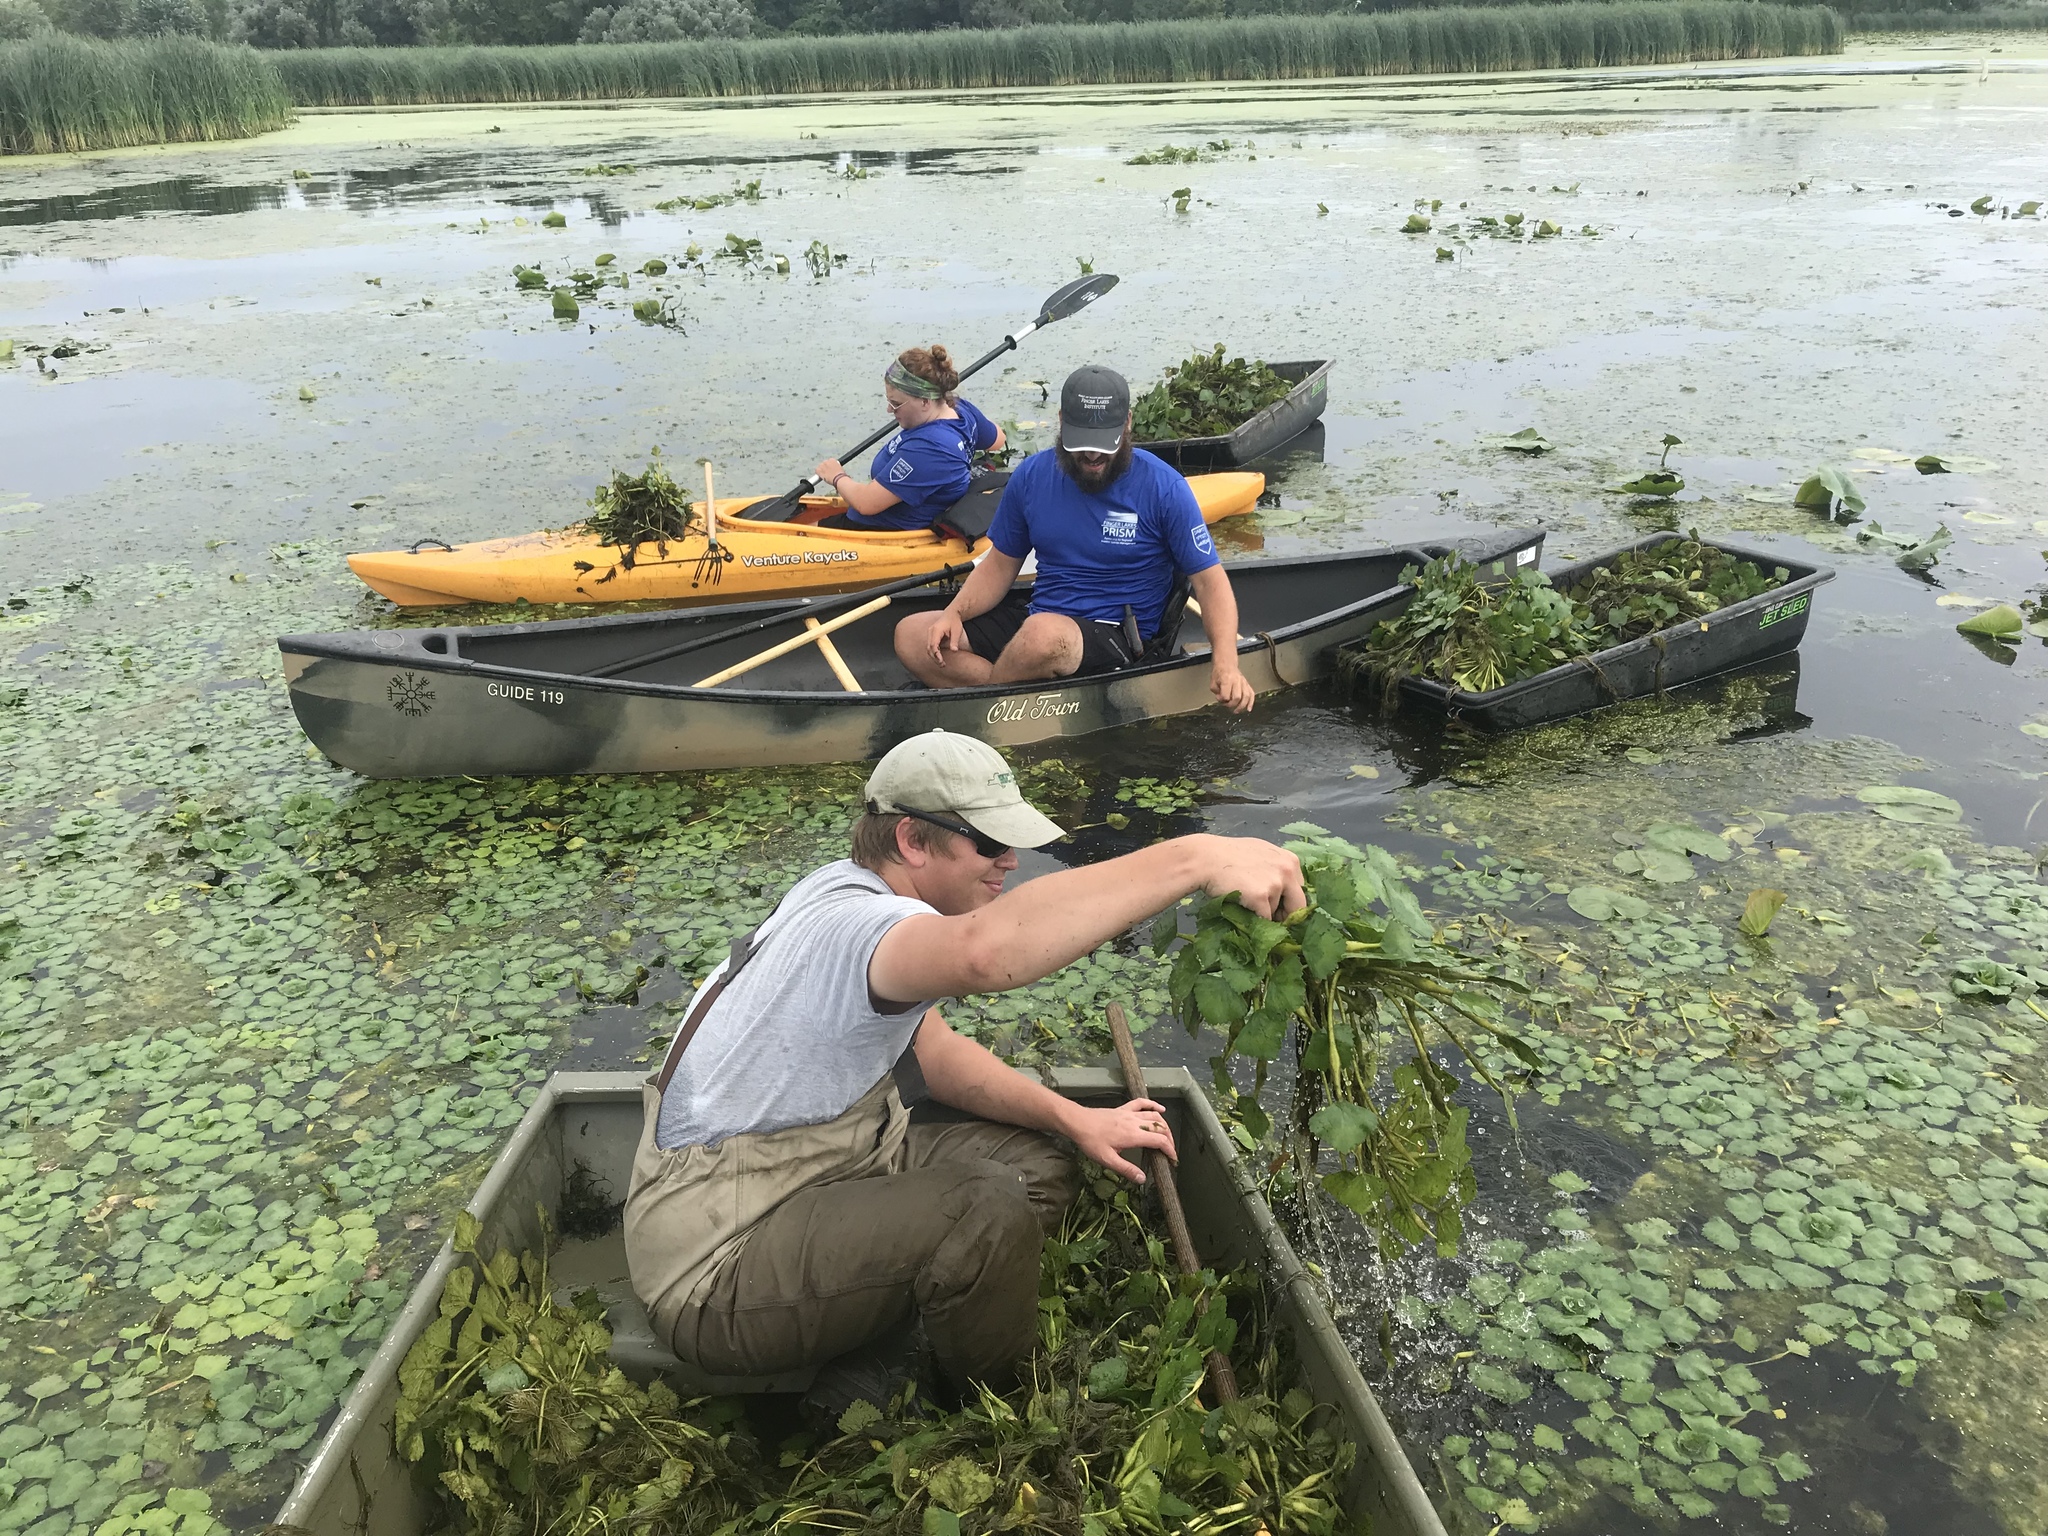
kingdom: Plantae
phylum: Tracheophyta
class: Magnoliopsida
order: Myrtales
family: Lythraceae
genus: Trapa
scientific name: Trapa natans
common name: Water chestnut
